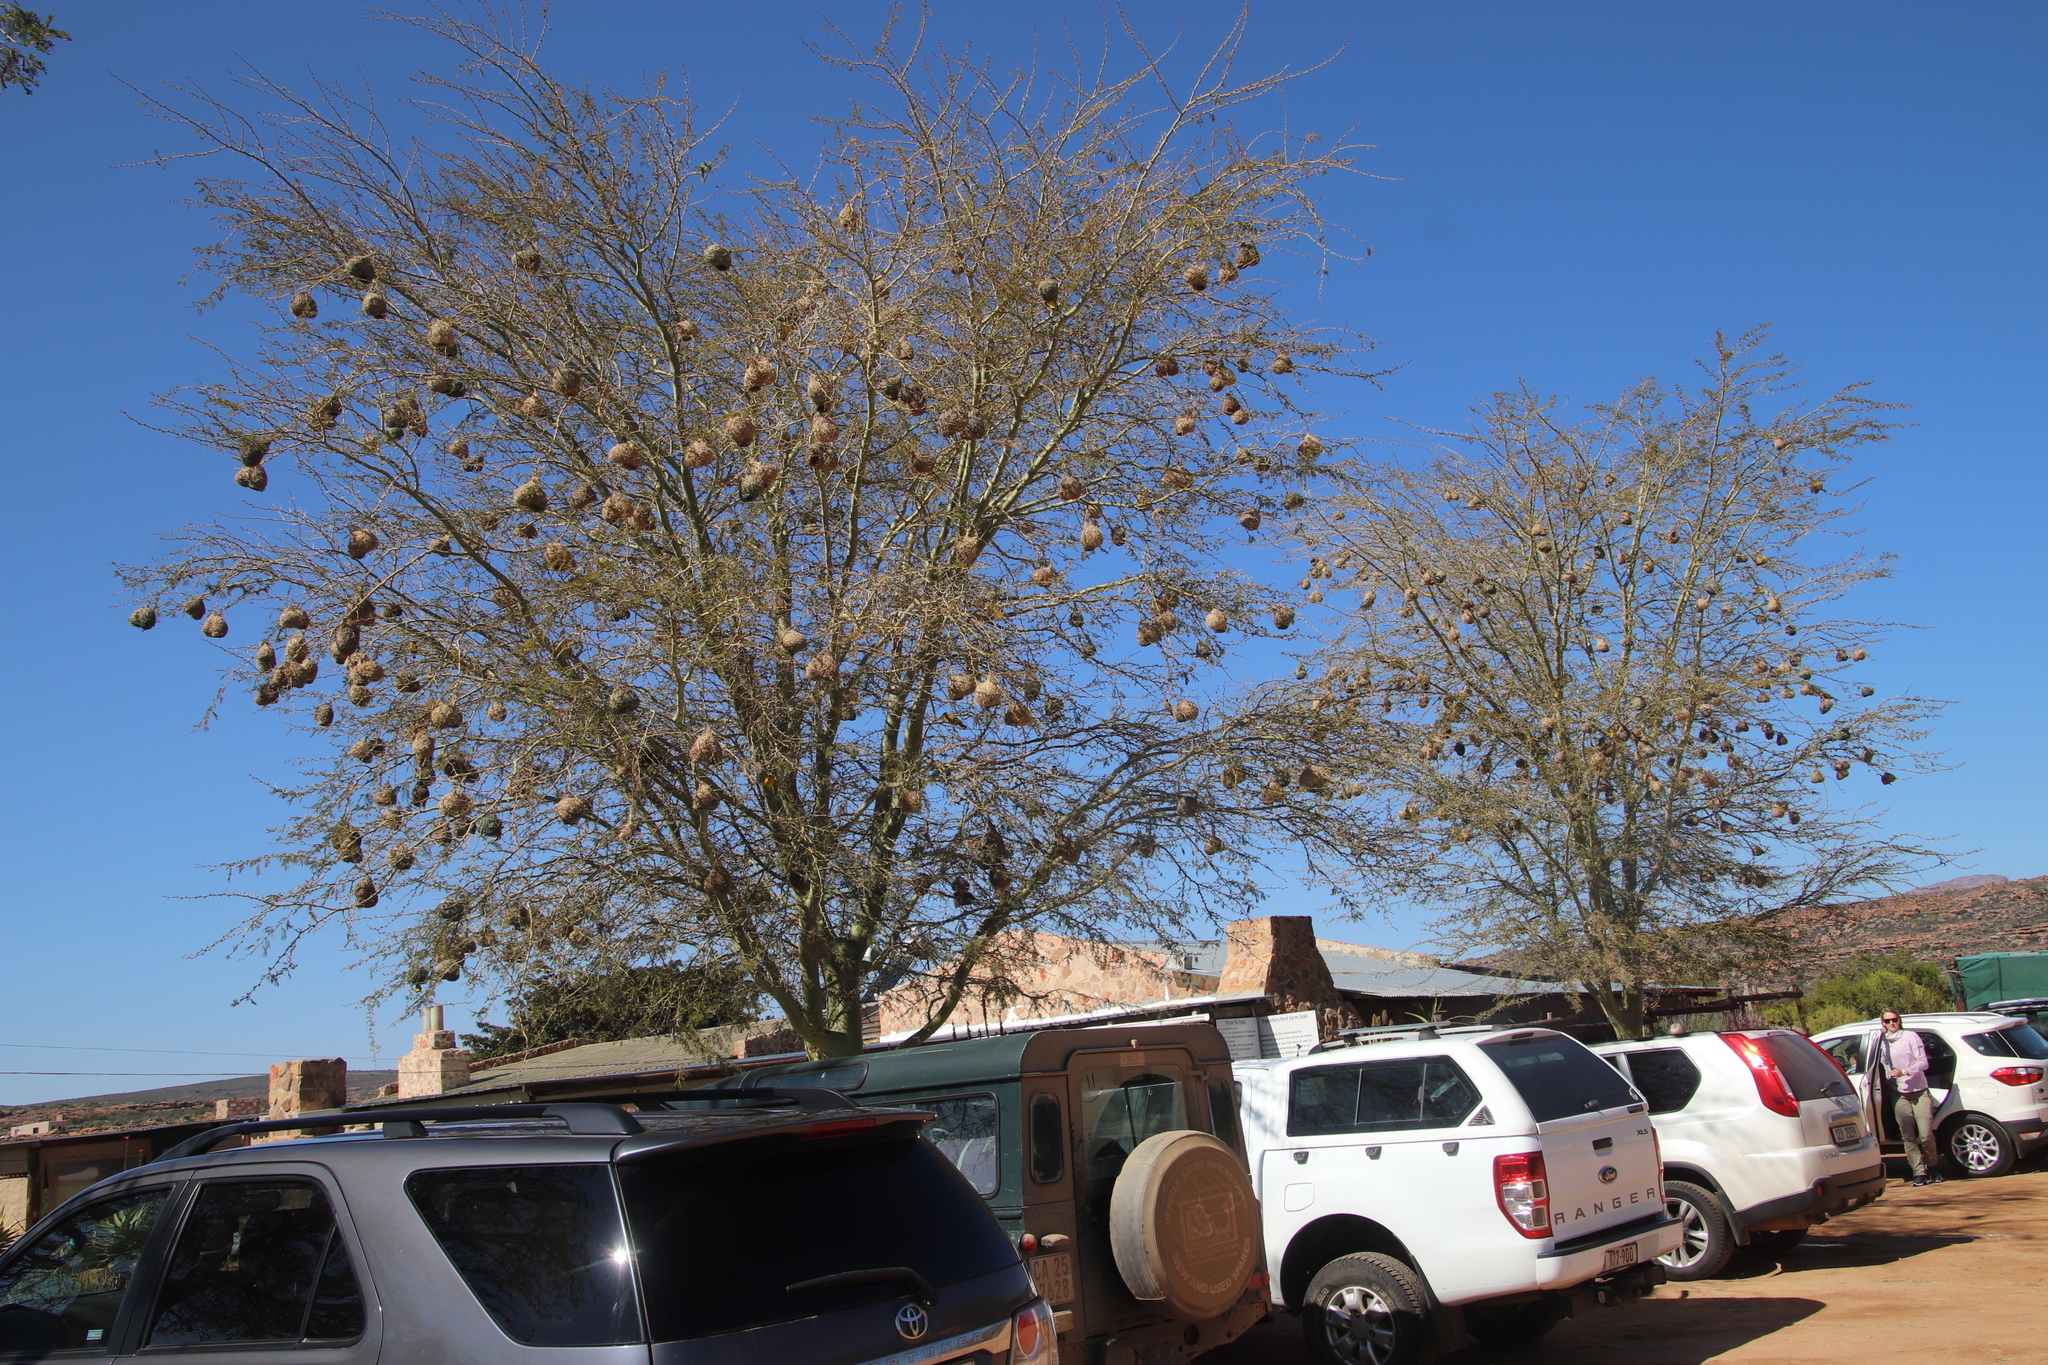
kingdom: Animalia
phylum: Chordata
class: Aves
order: Passeriformes
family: Ploceidae
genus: Ploceus
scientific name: Ploceus capensis
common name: Cape weaver
